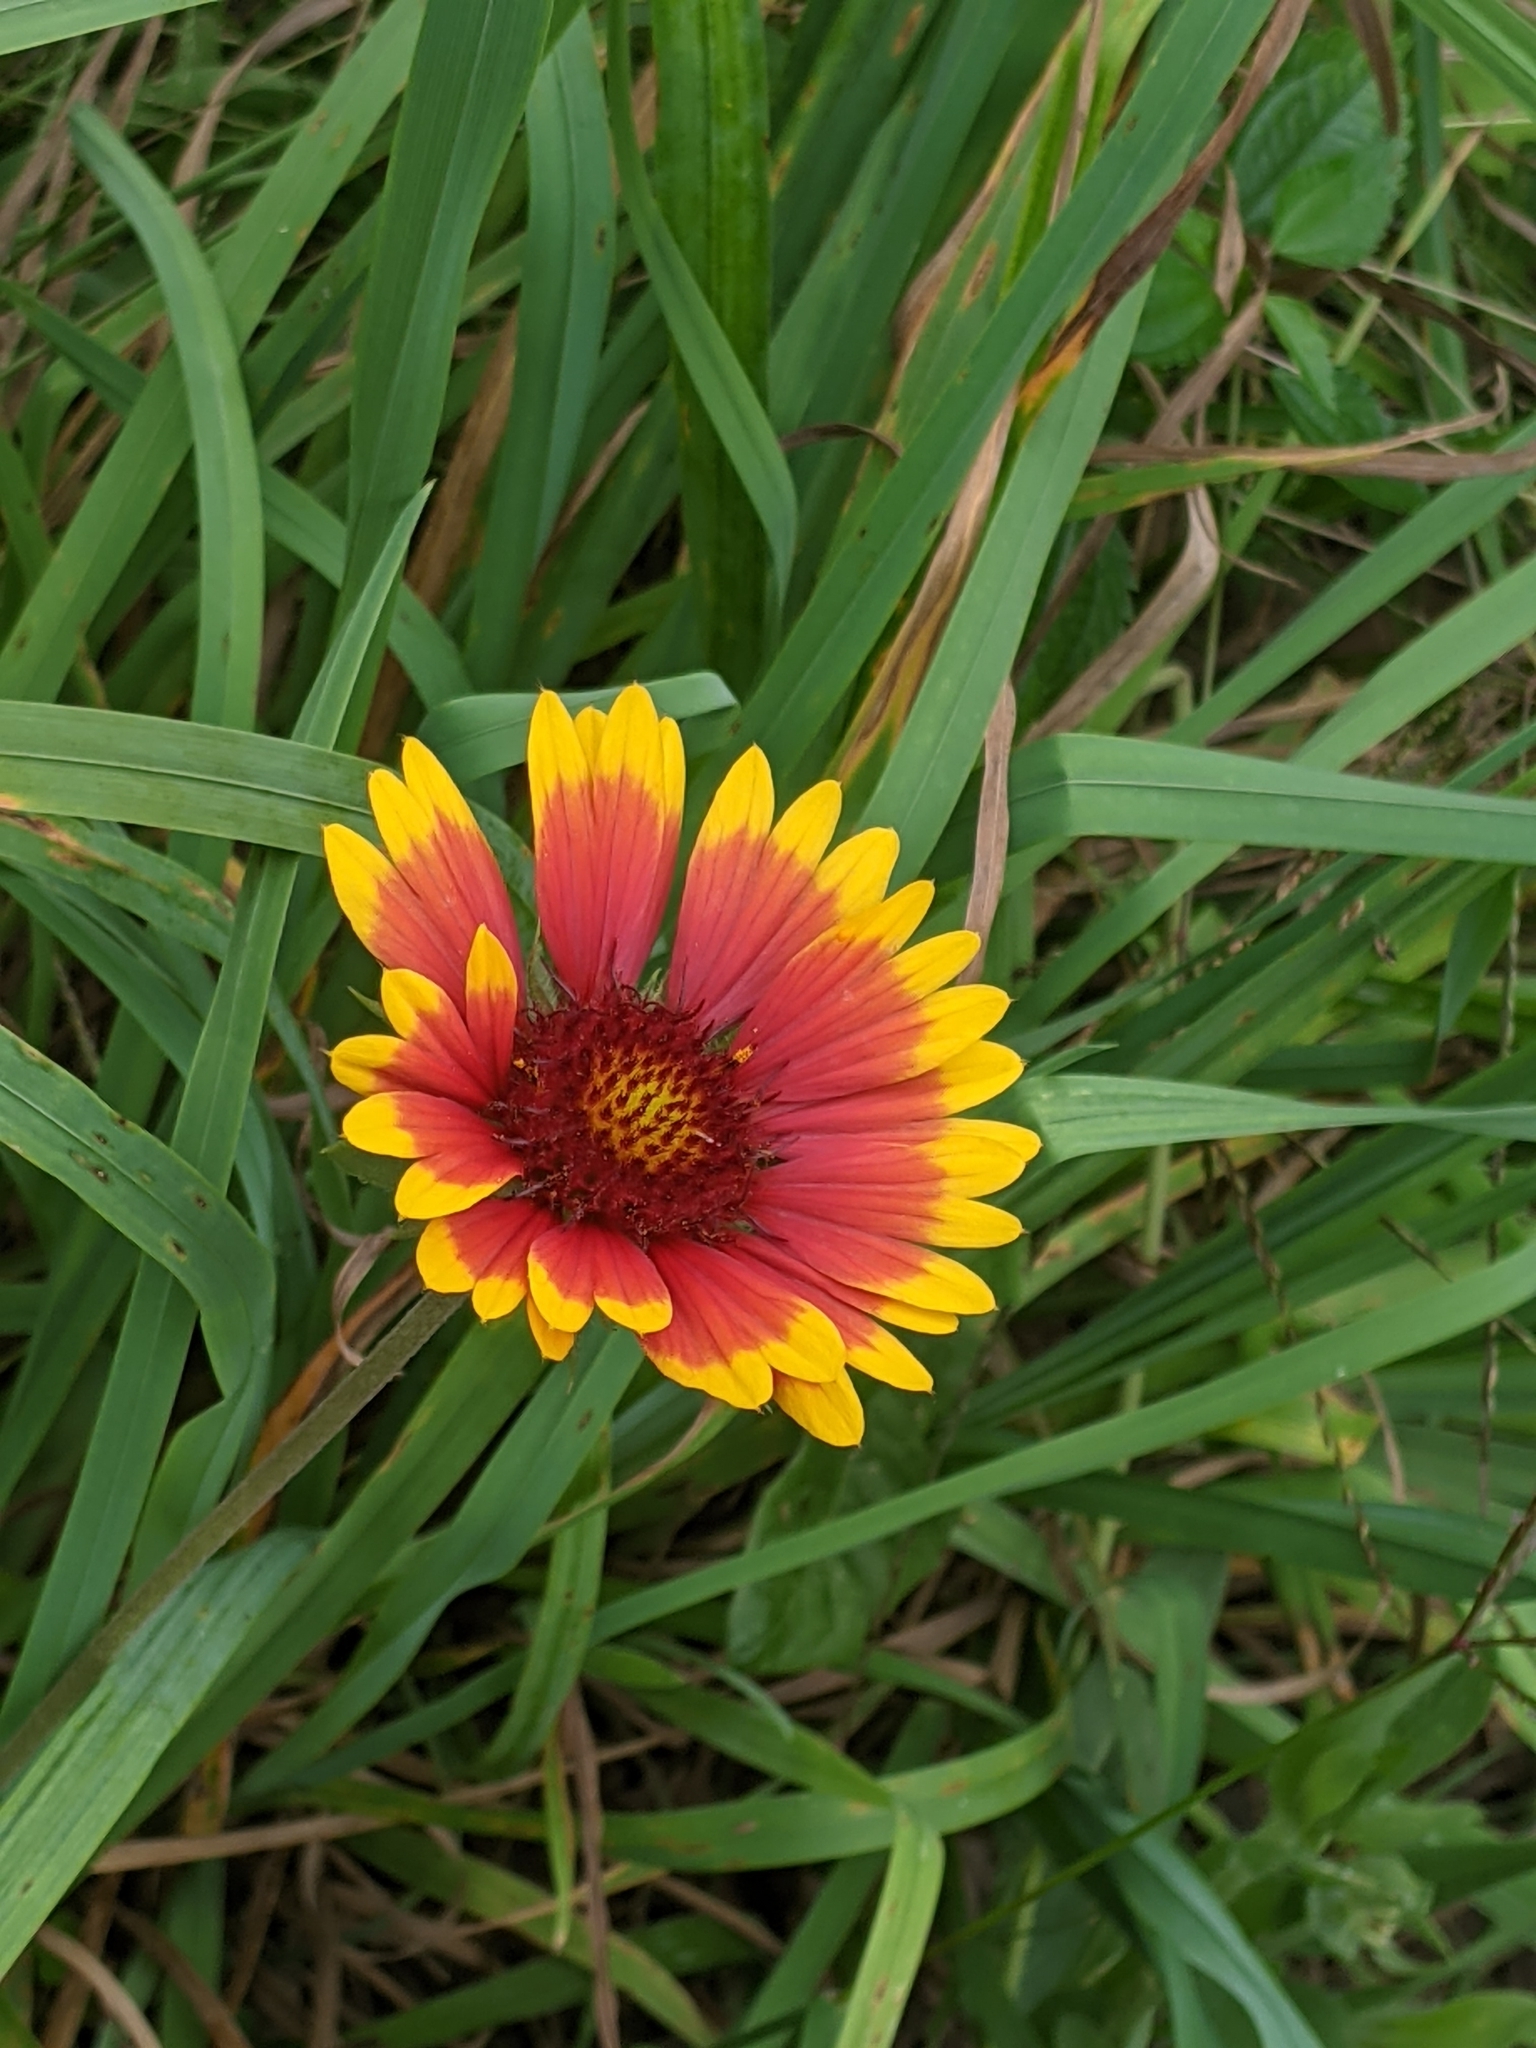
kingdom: Plantae
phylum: Tracheophyta
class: Magnoliopsida
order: Asterales
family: Asteraceae
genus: Gaillardia
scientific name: Gaillardia pulchella
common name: Firewheel
